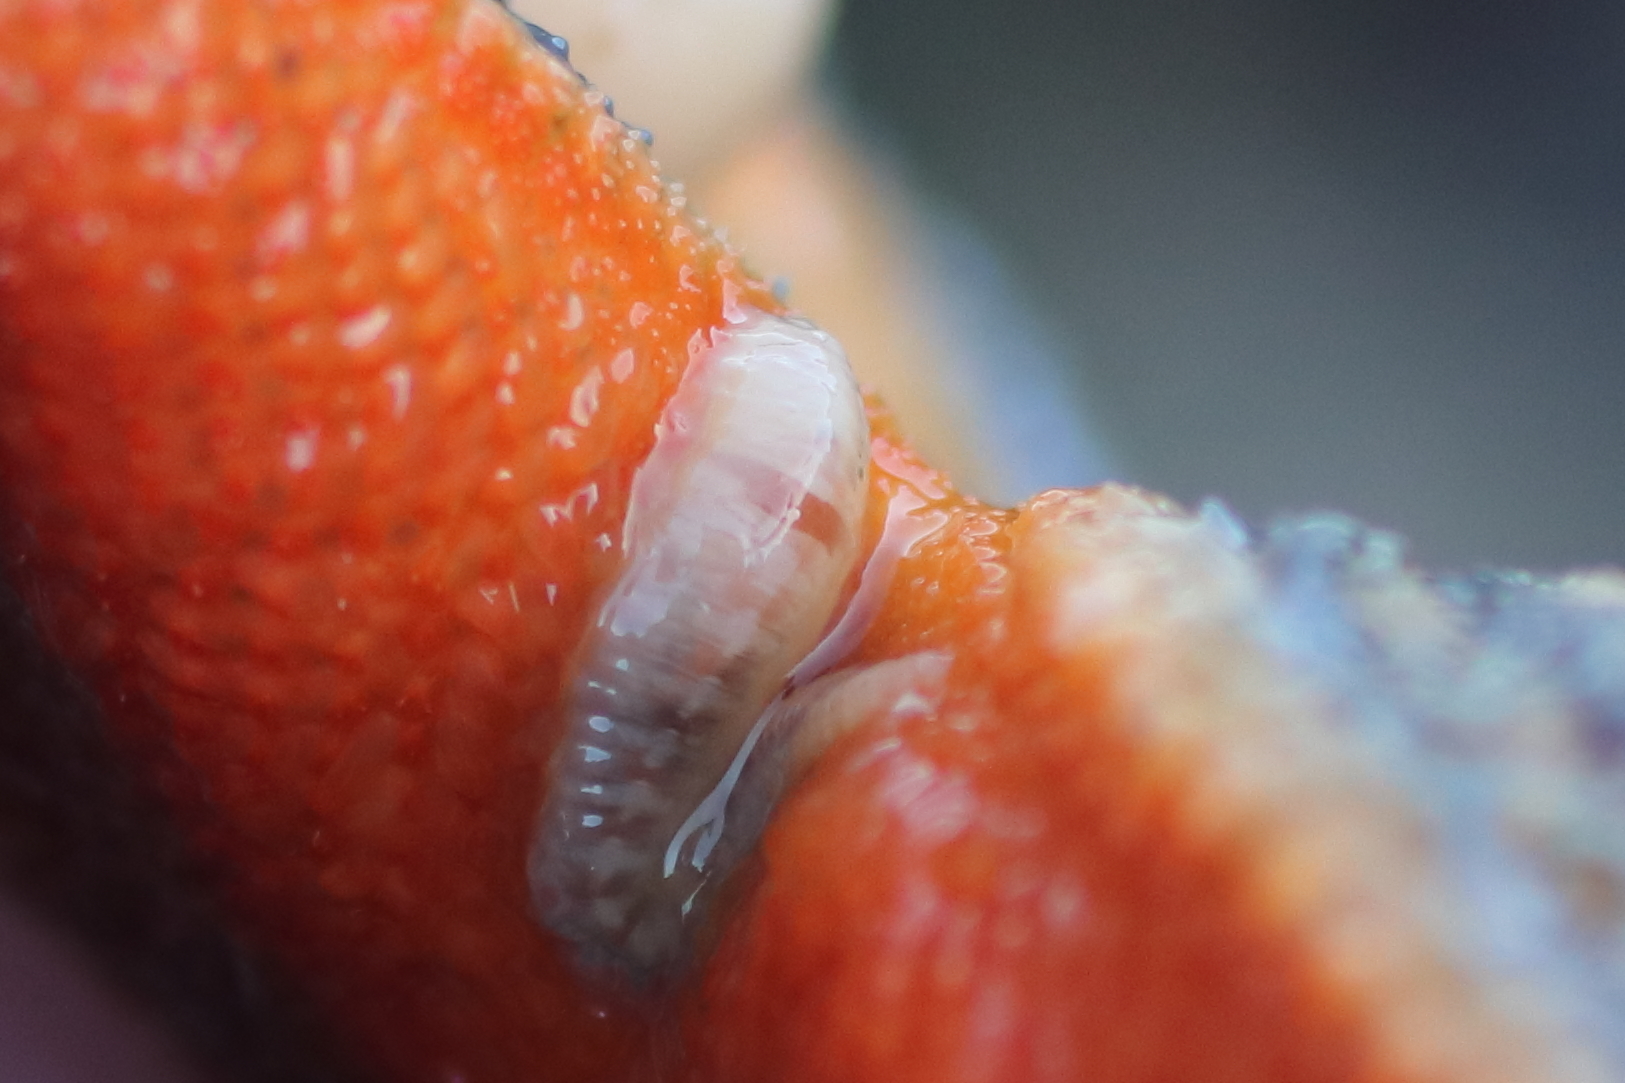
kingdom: Animalia
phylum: Annelida
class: Polychaeta
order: Phyllodocida
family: Polynoidae
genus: Arctonoe
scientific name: Arctonoe vittata
